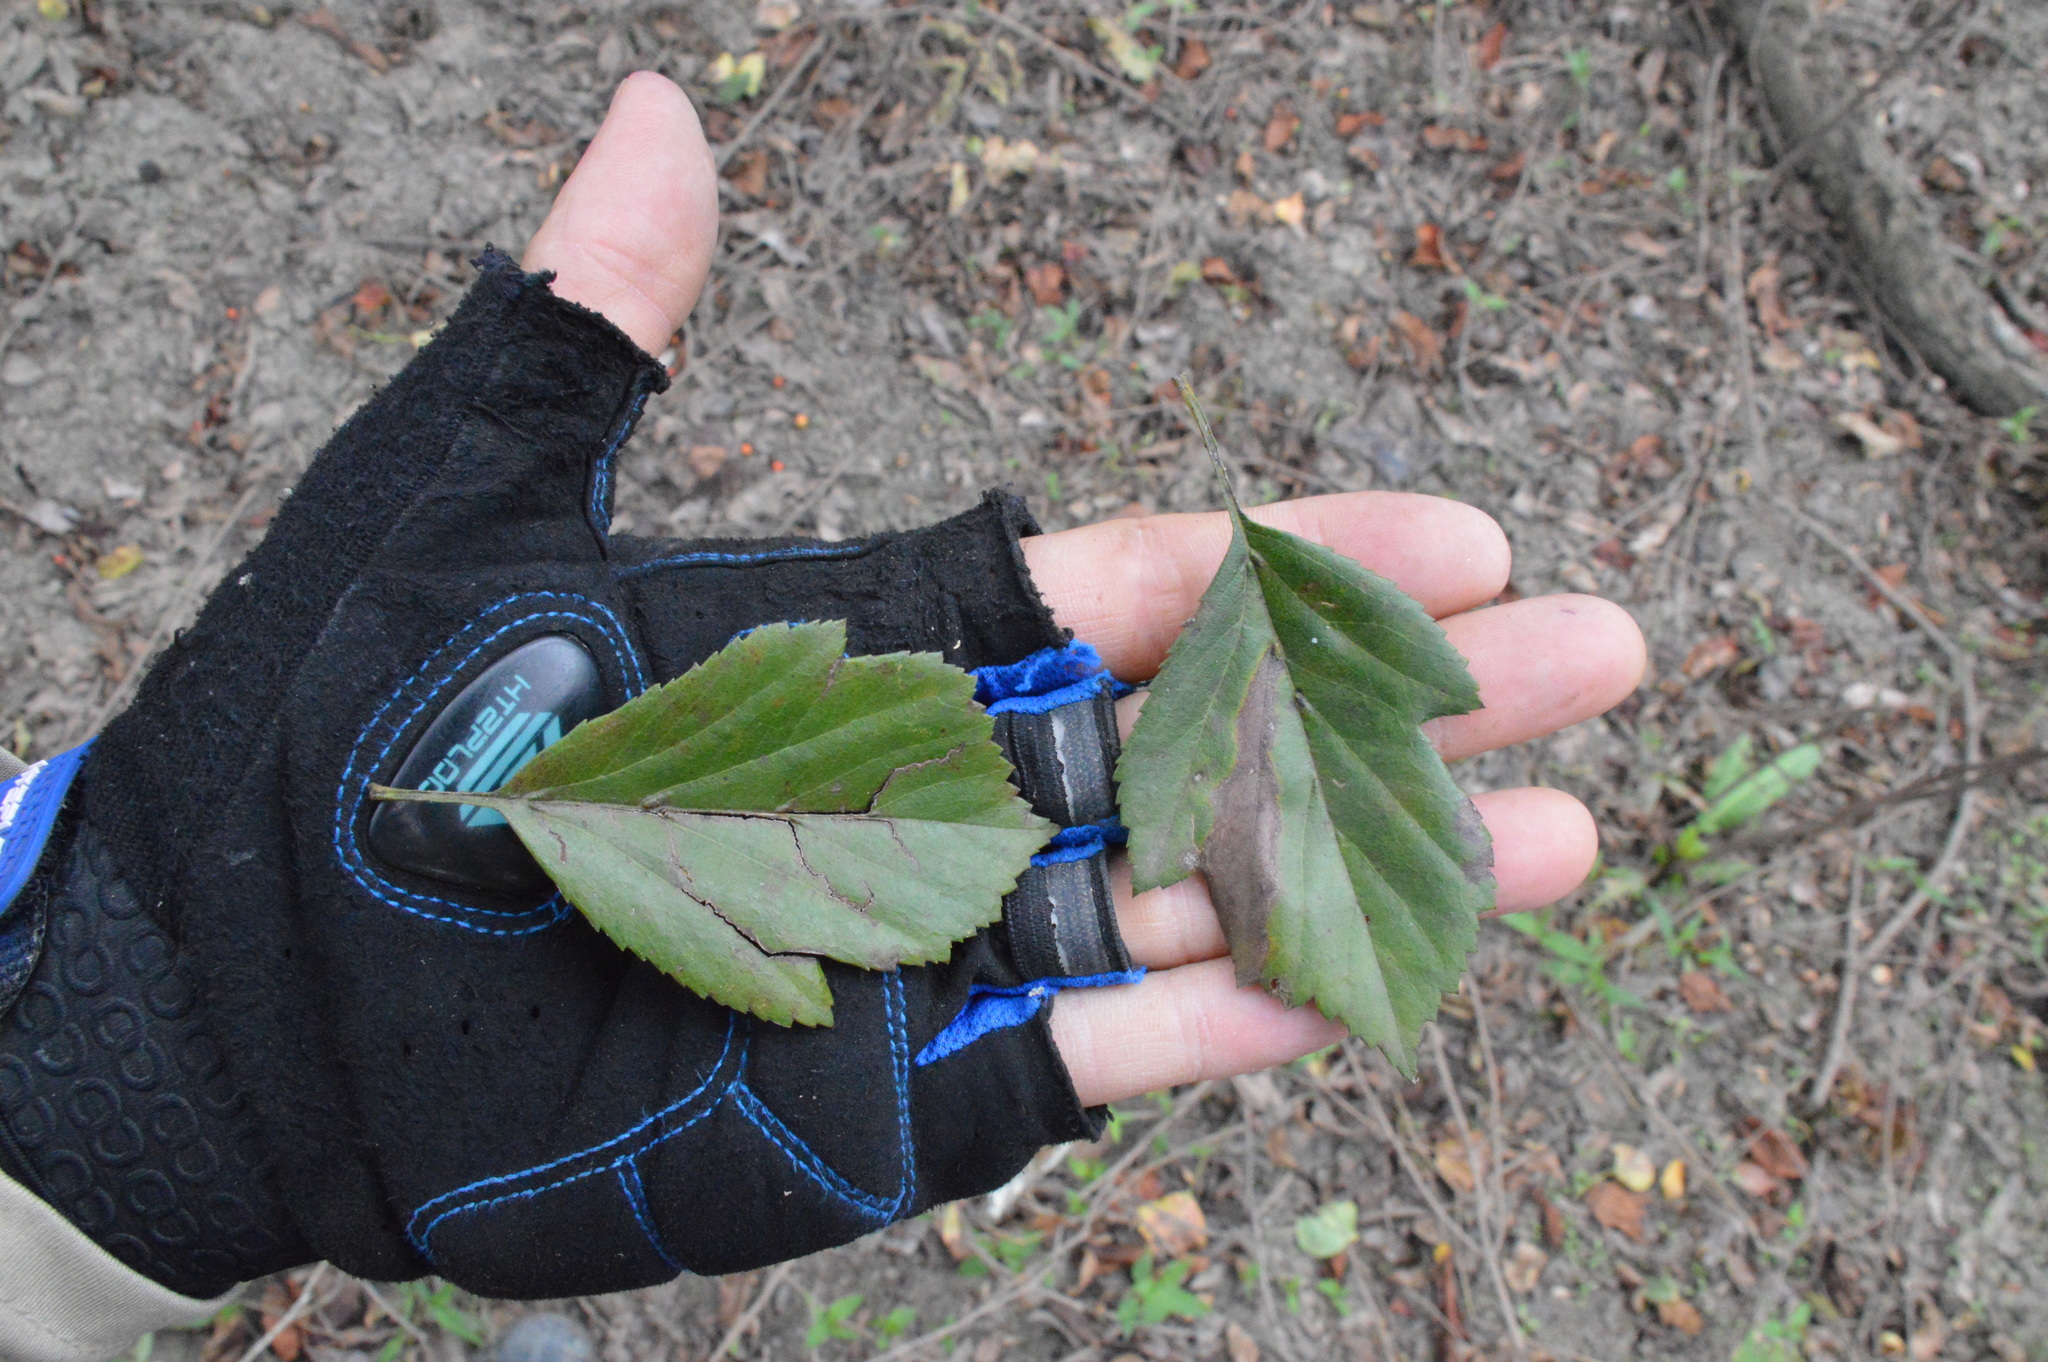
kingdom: Plantae
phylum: Tracheophyta
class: Magnoliopsida
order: Rosales
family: Rosaceae
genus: Crataegus
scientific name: Crataegus viridis
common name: Southernthorn
